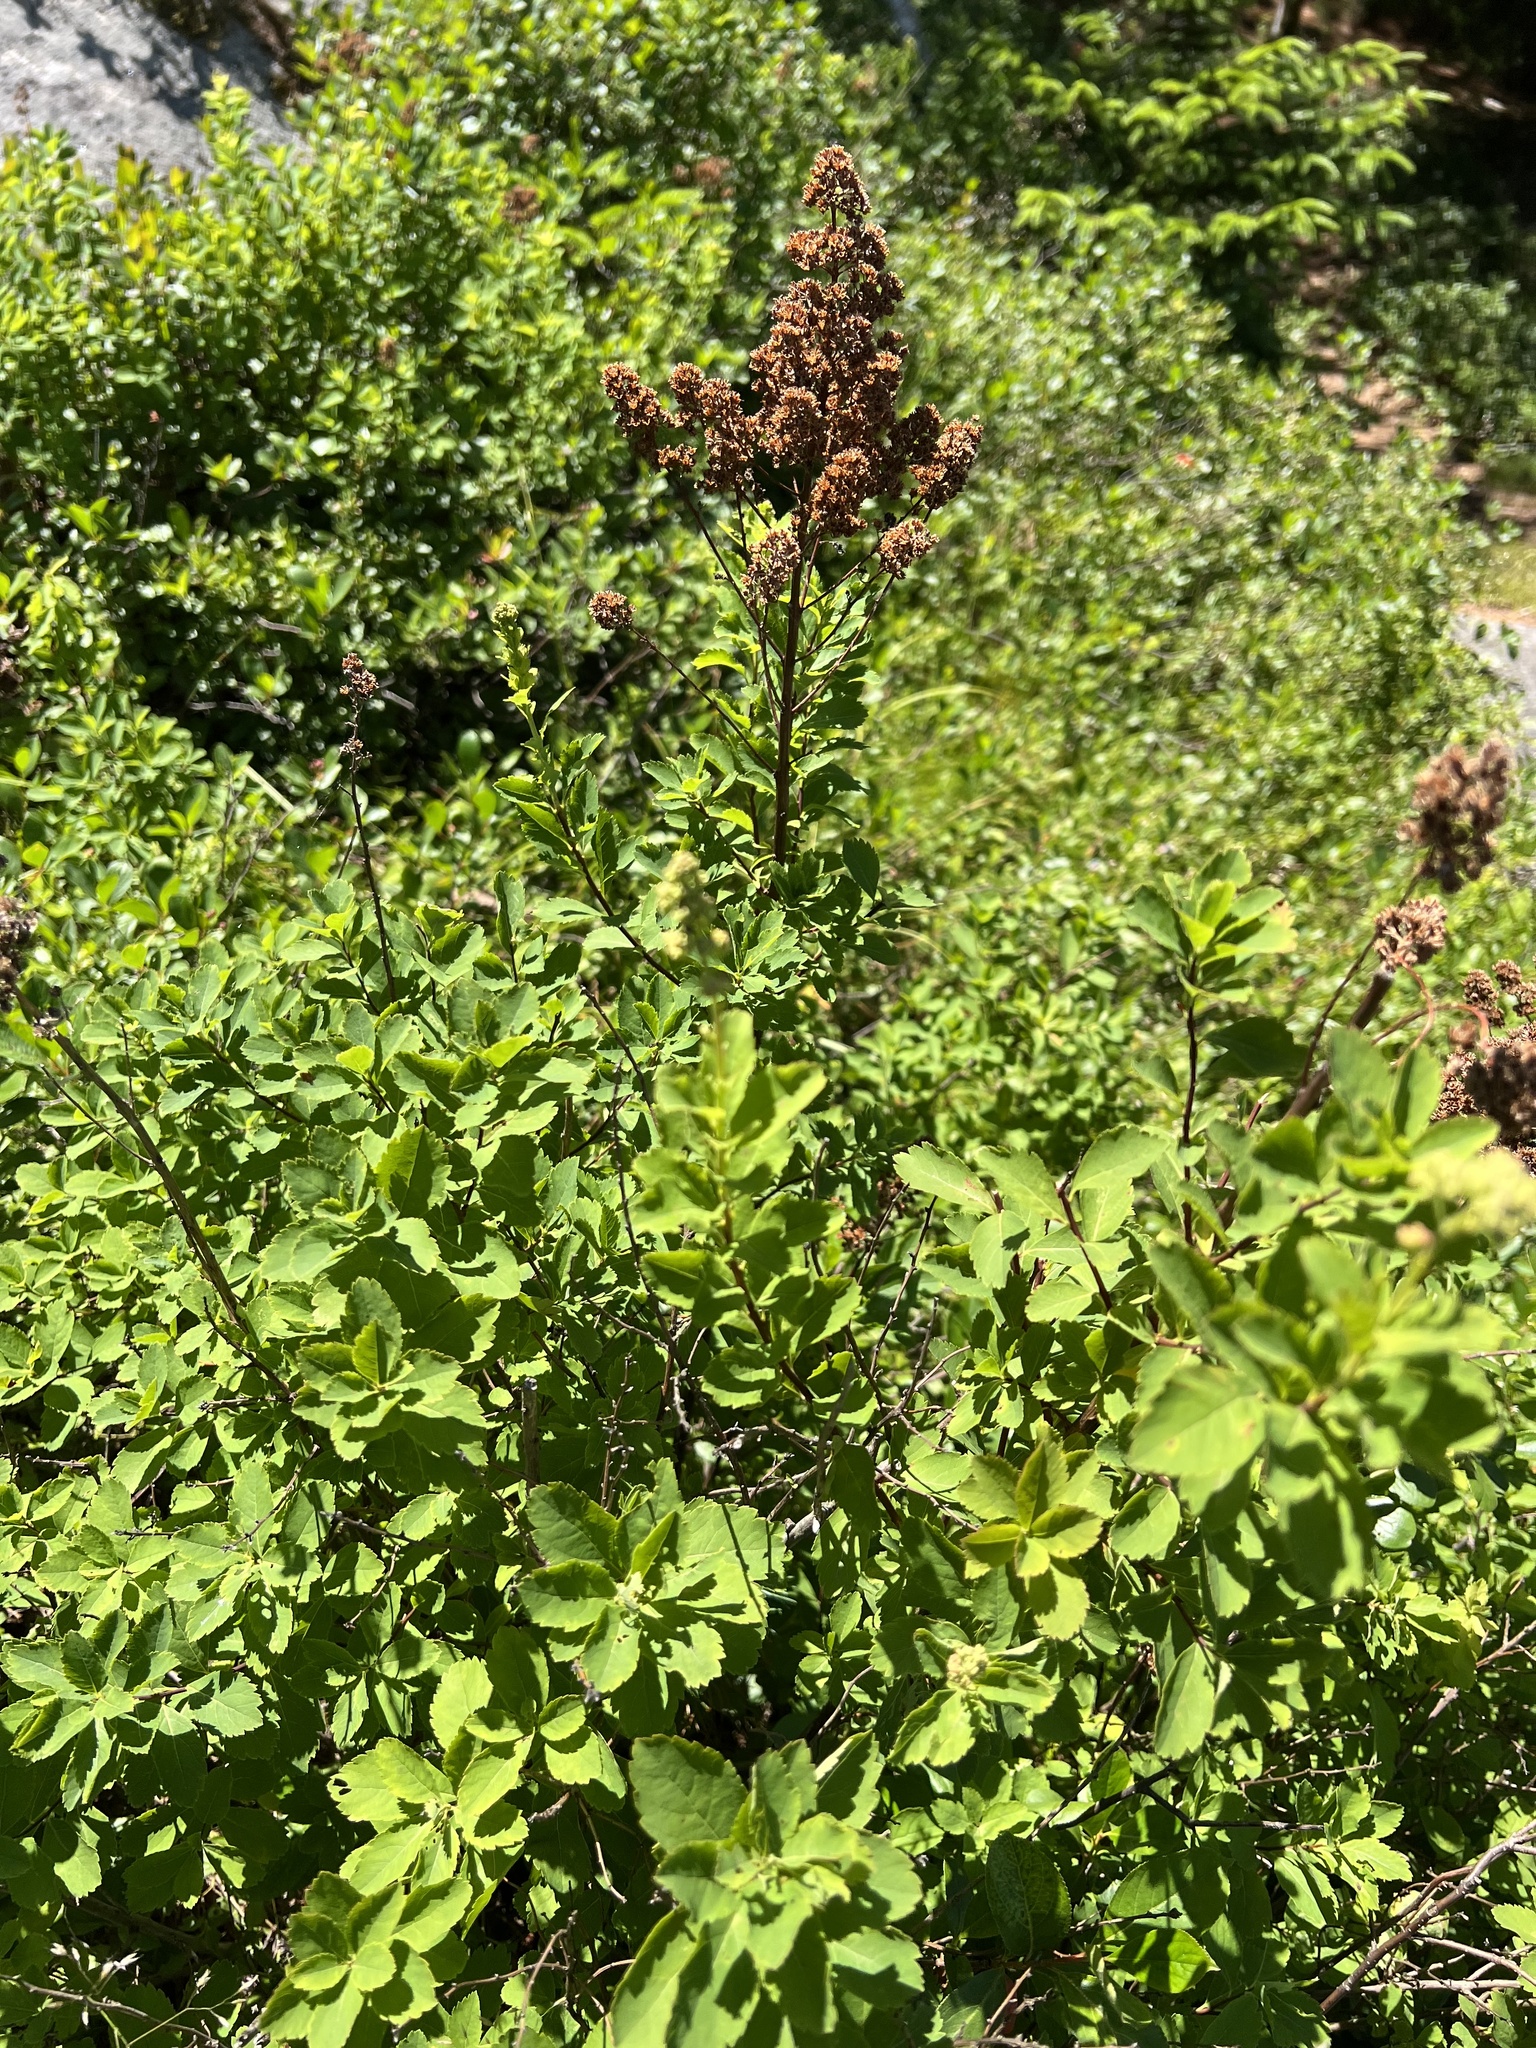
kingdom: Plantae
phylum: Tracheophyta
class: Magnoliopsida
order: Rosales
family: Rosaceae
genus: Spiraea
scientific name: Spiraea alba
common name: Pale bridewort
